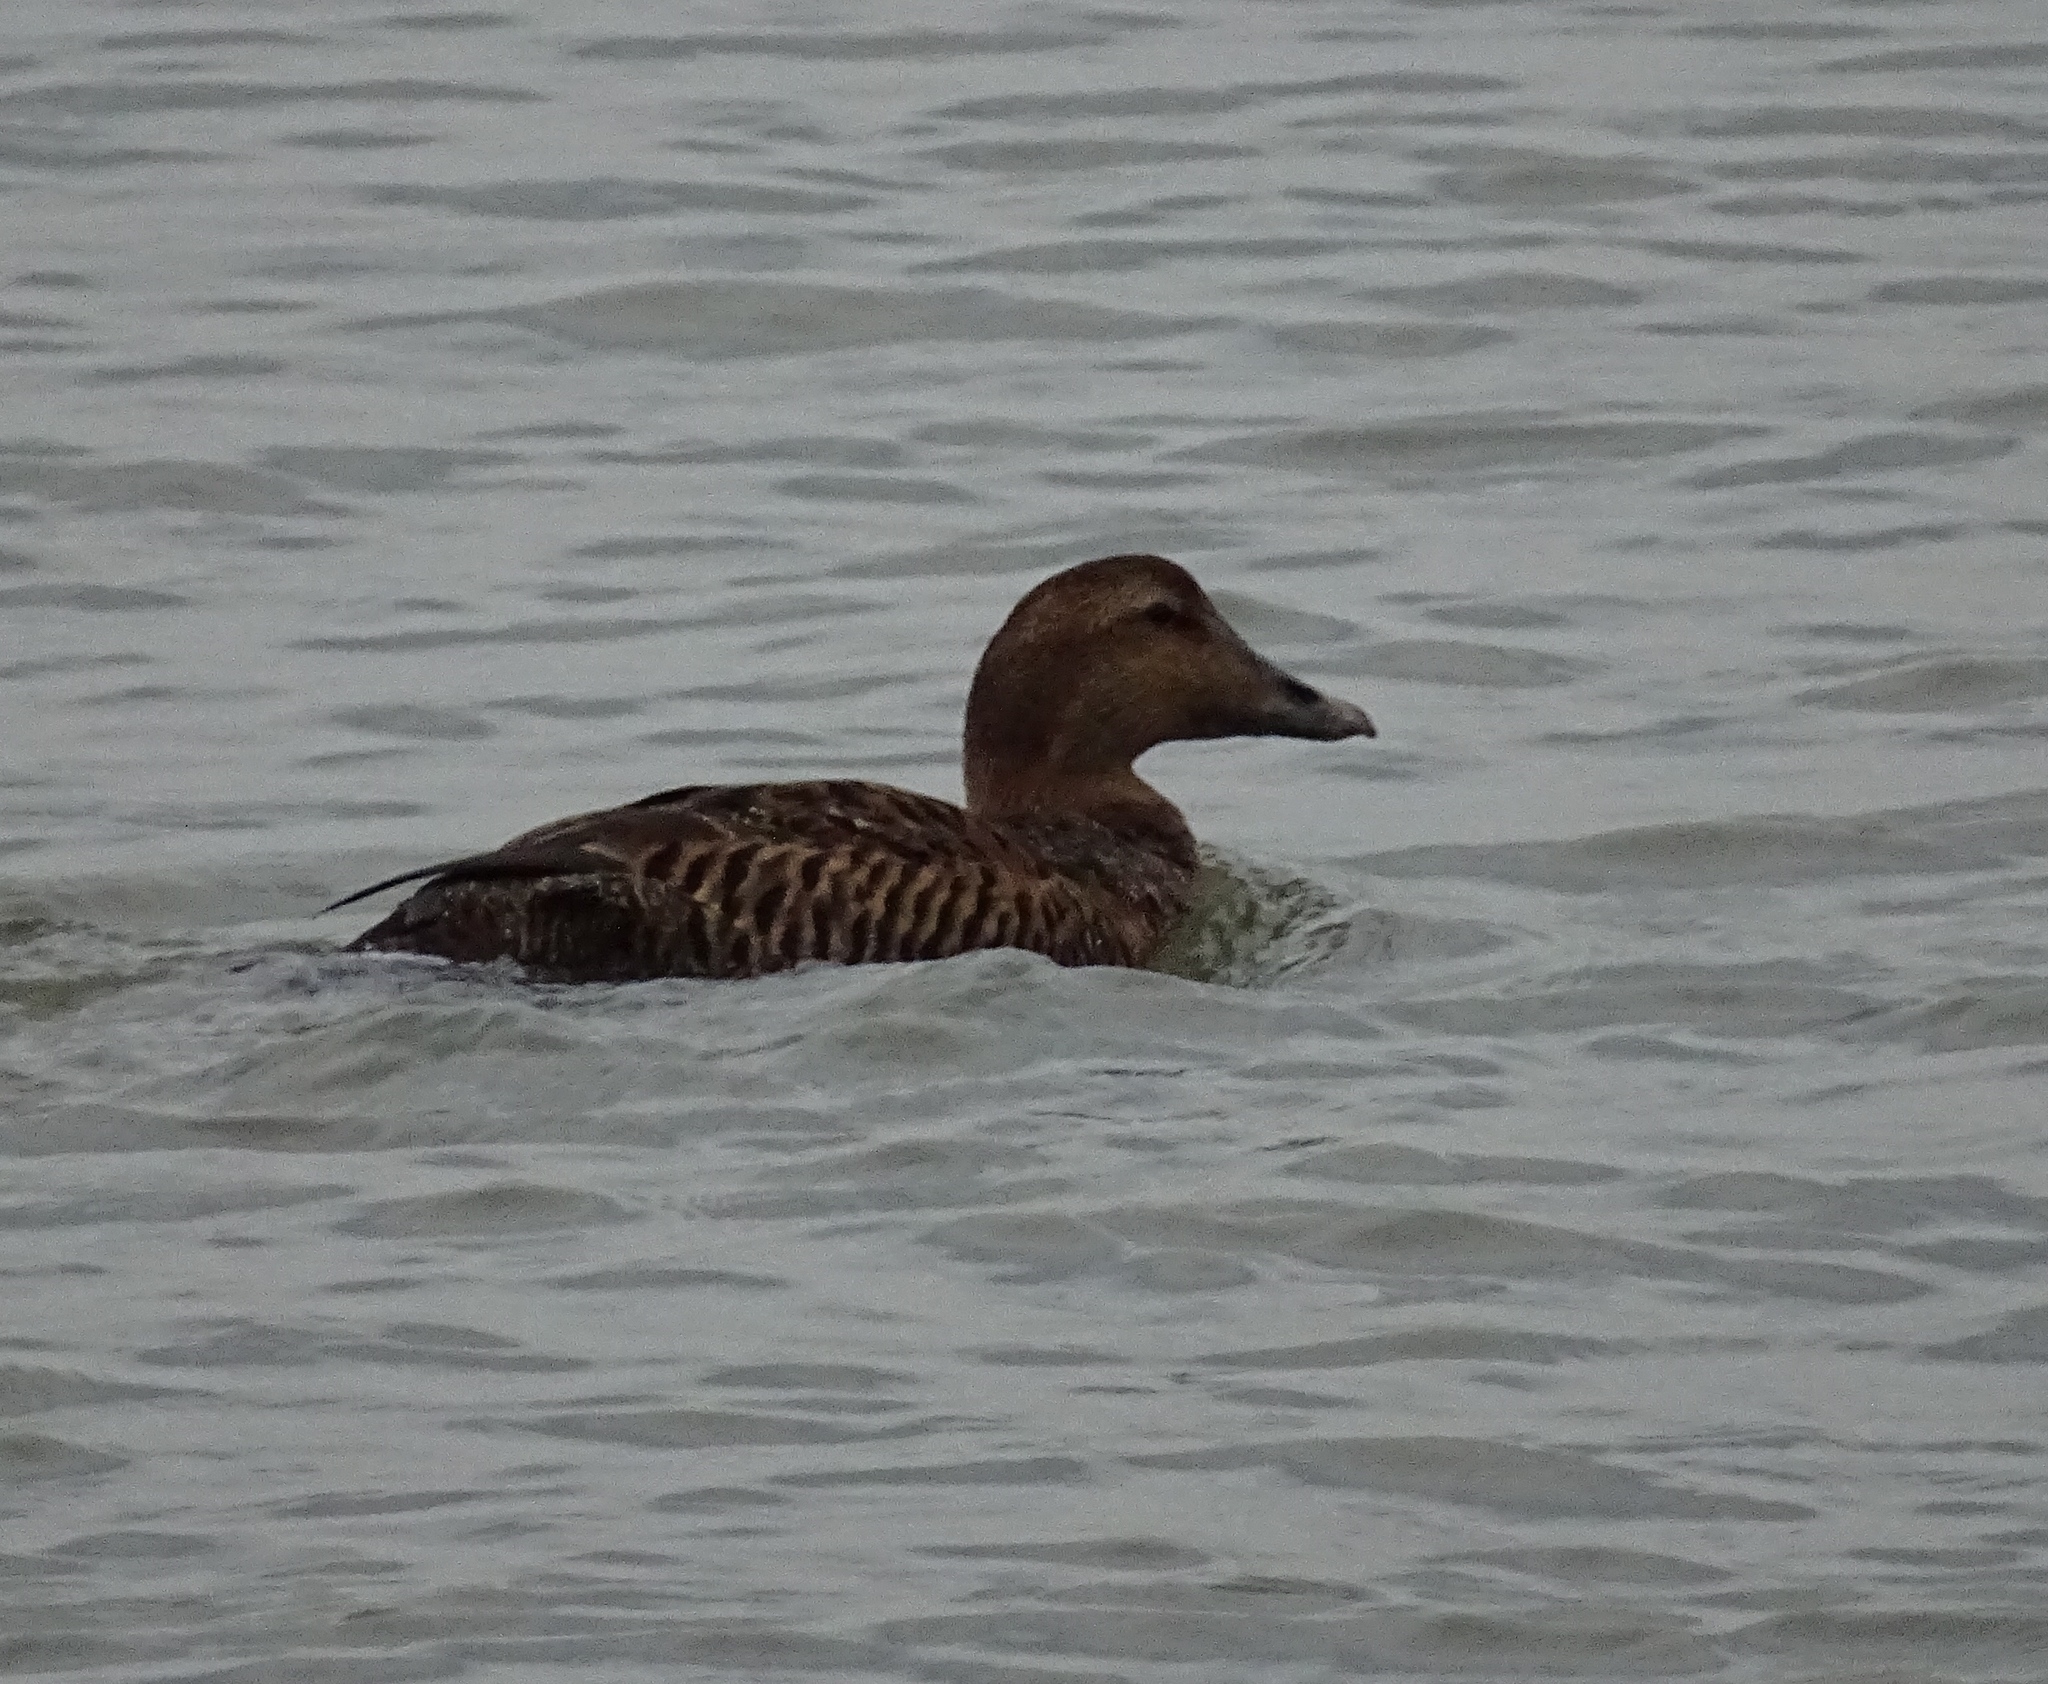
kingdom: Animalia
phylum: Chordata
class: Aves
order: Anseriformes
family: Anatidae
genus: Somateria
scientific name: Somateria mollissima
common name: Common eider
